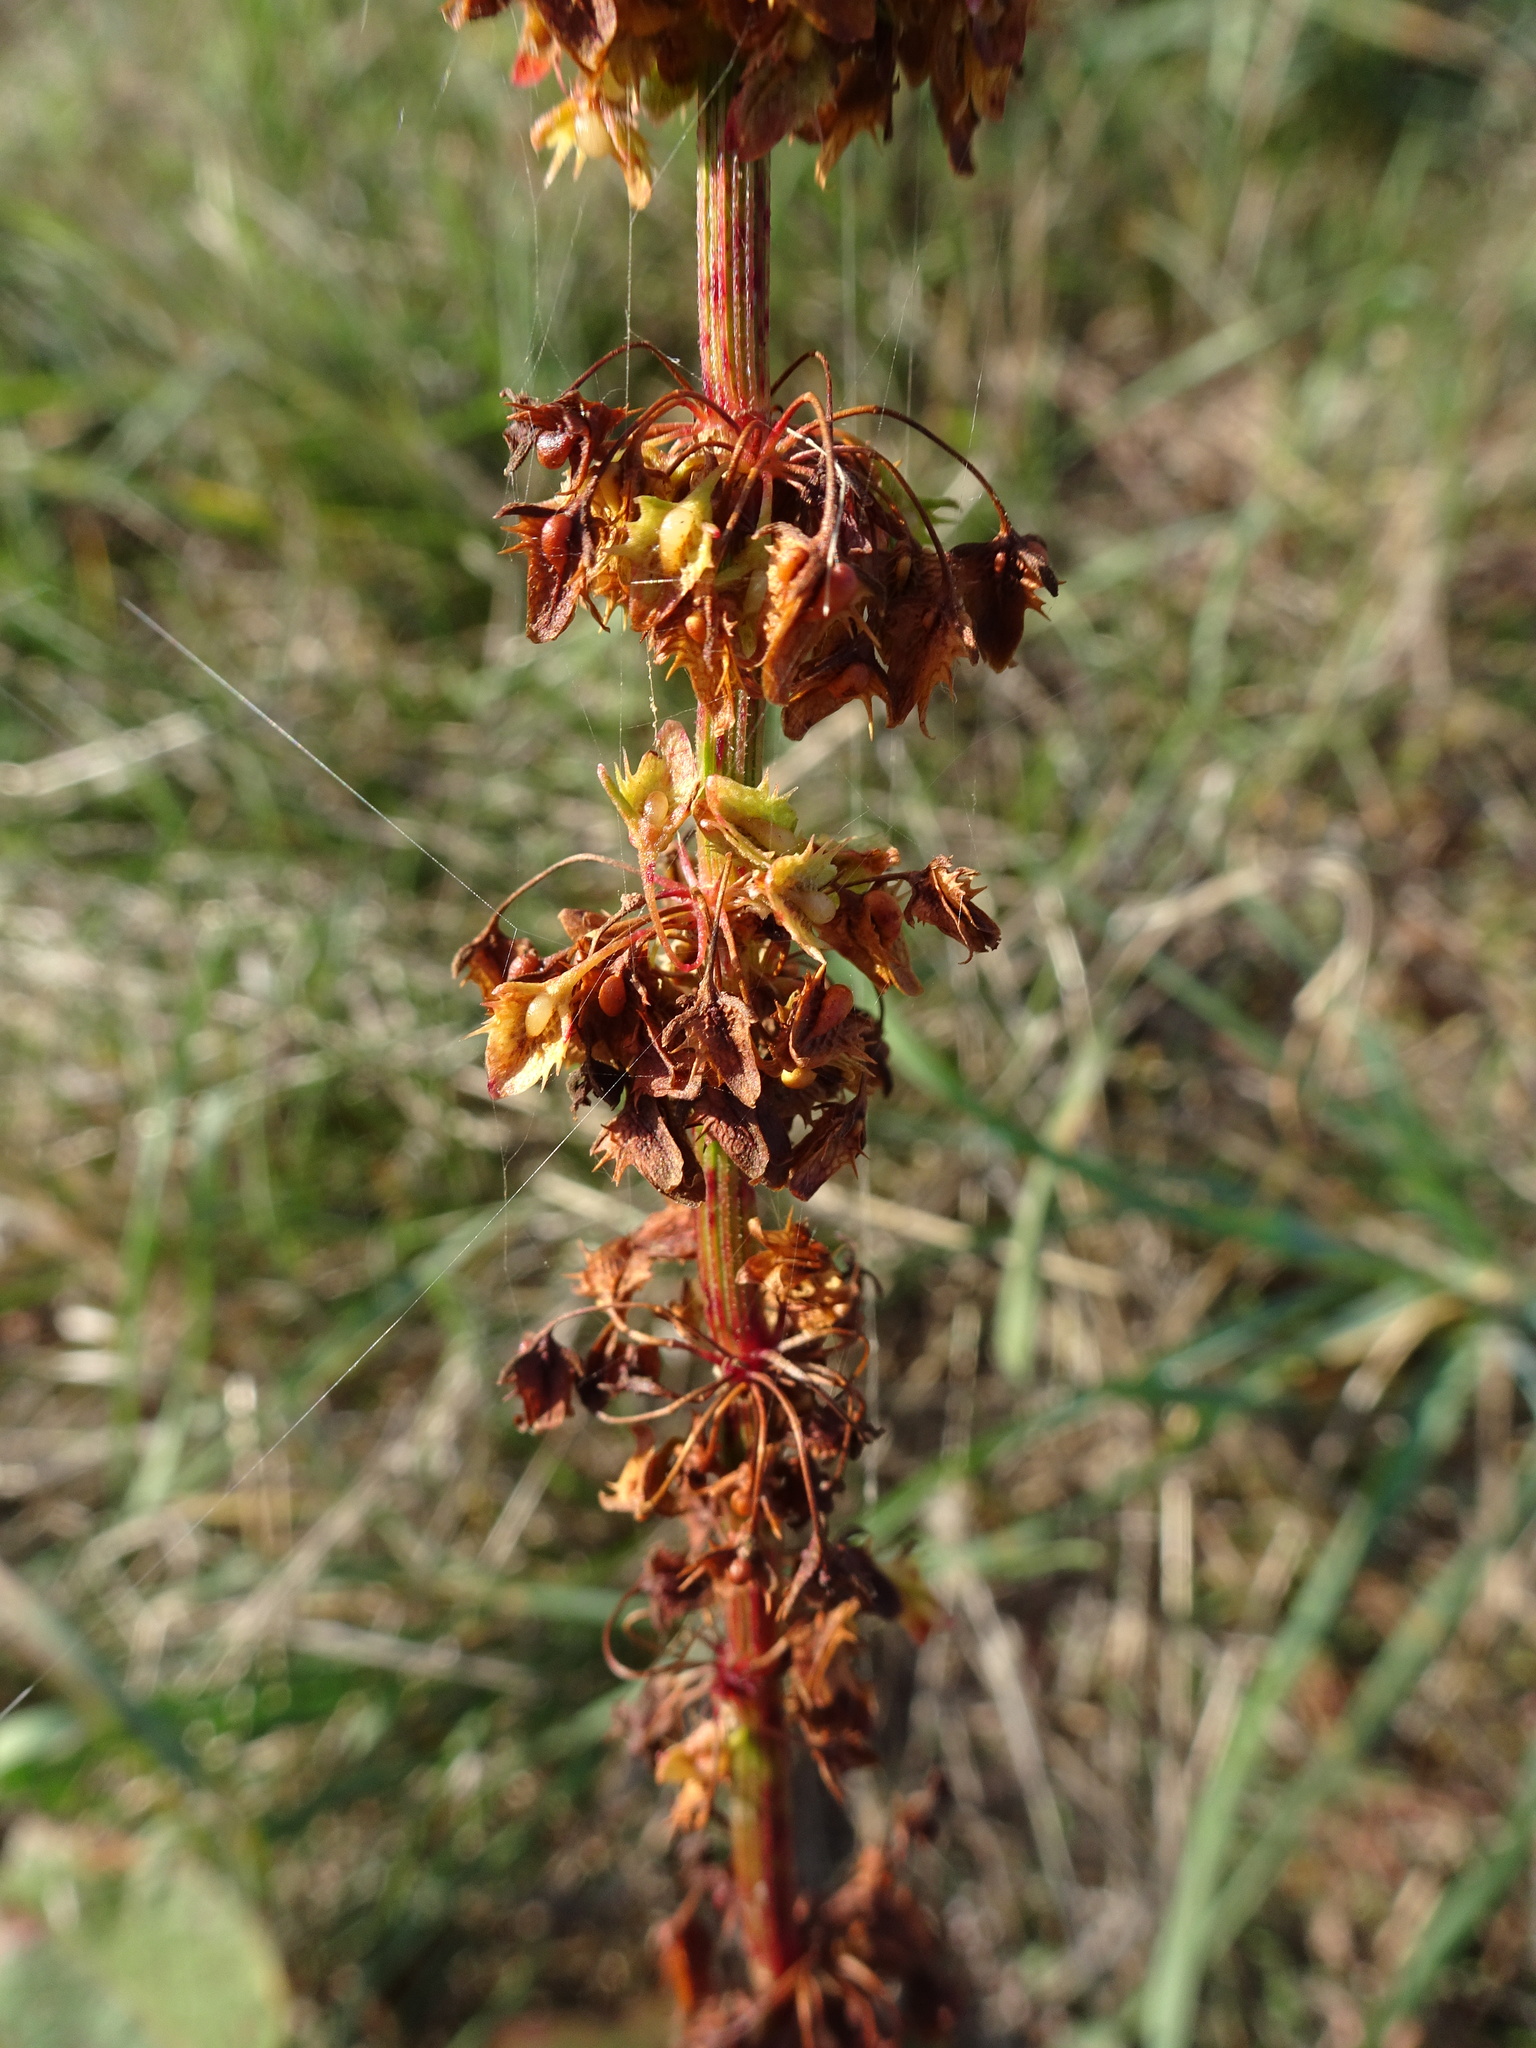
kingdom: Plantae
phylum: Tracheophyta
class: Magnoliopsida
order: Caryophyllales
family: Polygonaceae
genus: Rumex
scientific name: Rumex obtusifolius
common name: Bitter dock
